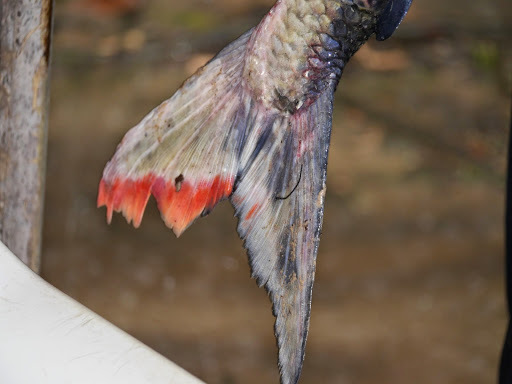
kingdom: Animalia
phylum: Chordata
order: Characiformes
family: Alestidae
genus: Hydrocynus
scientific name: Hydrocynus goliath
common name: Giant tigerfish
